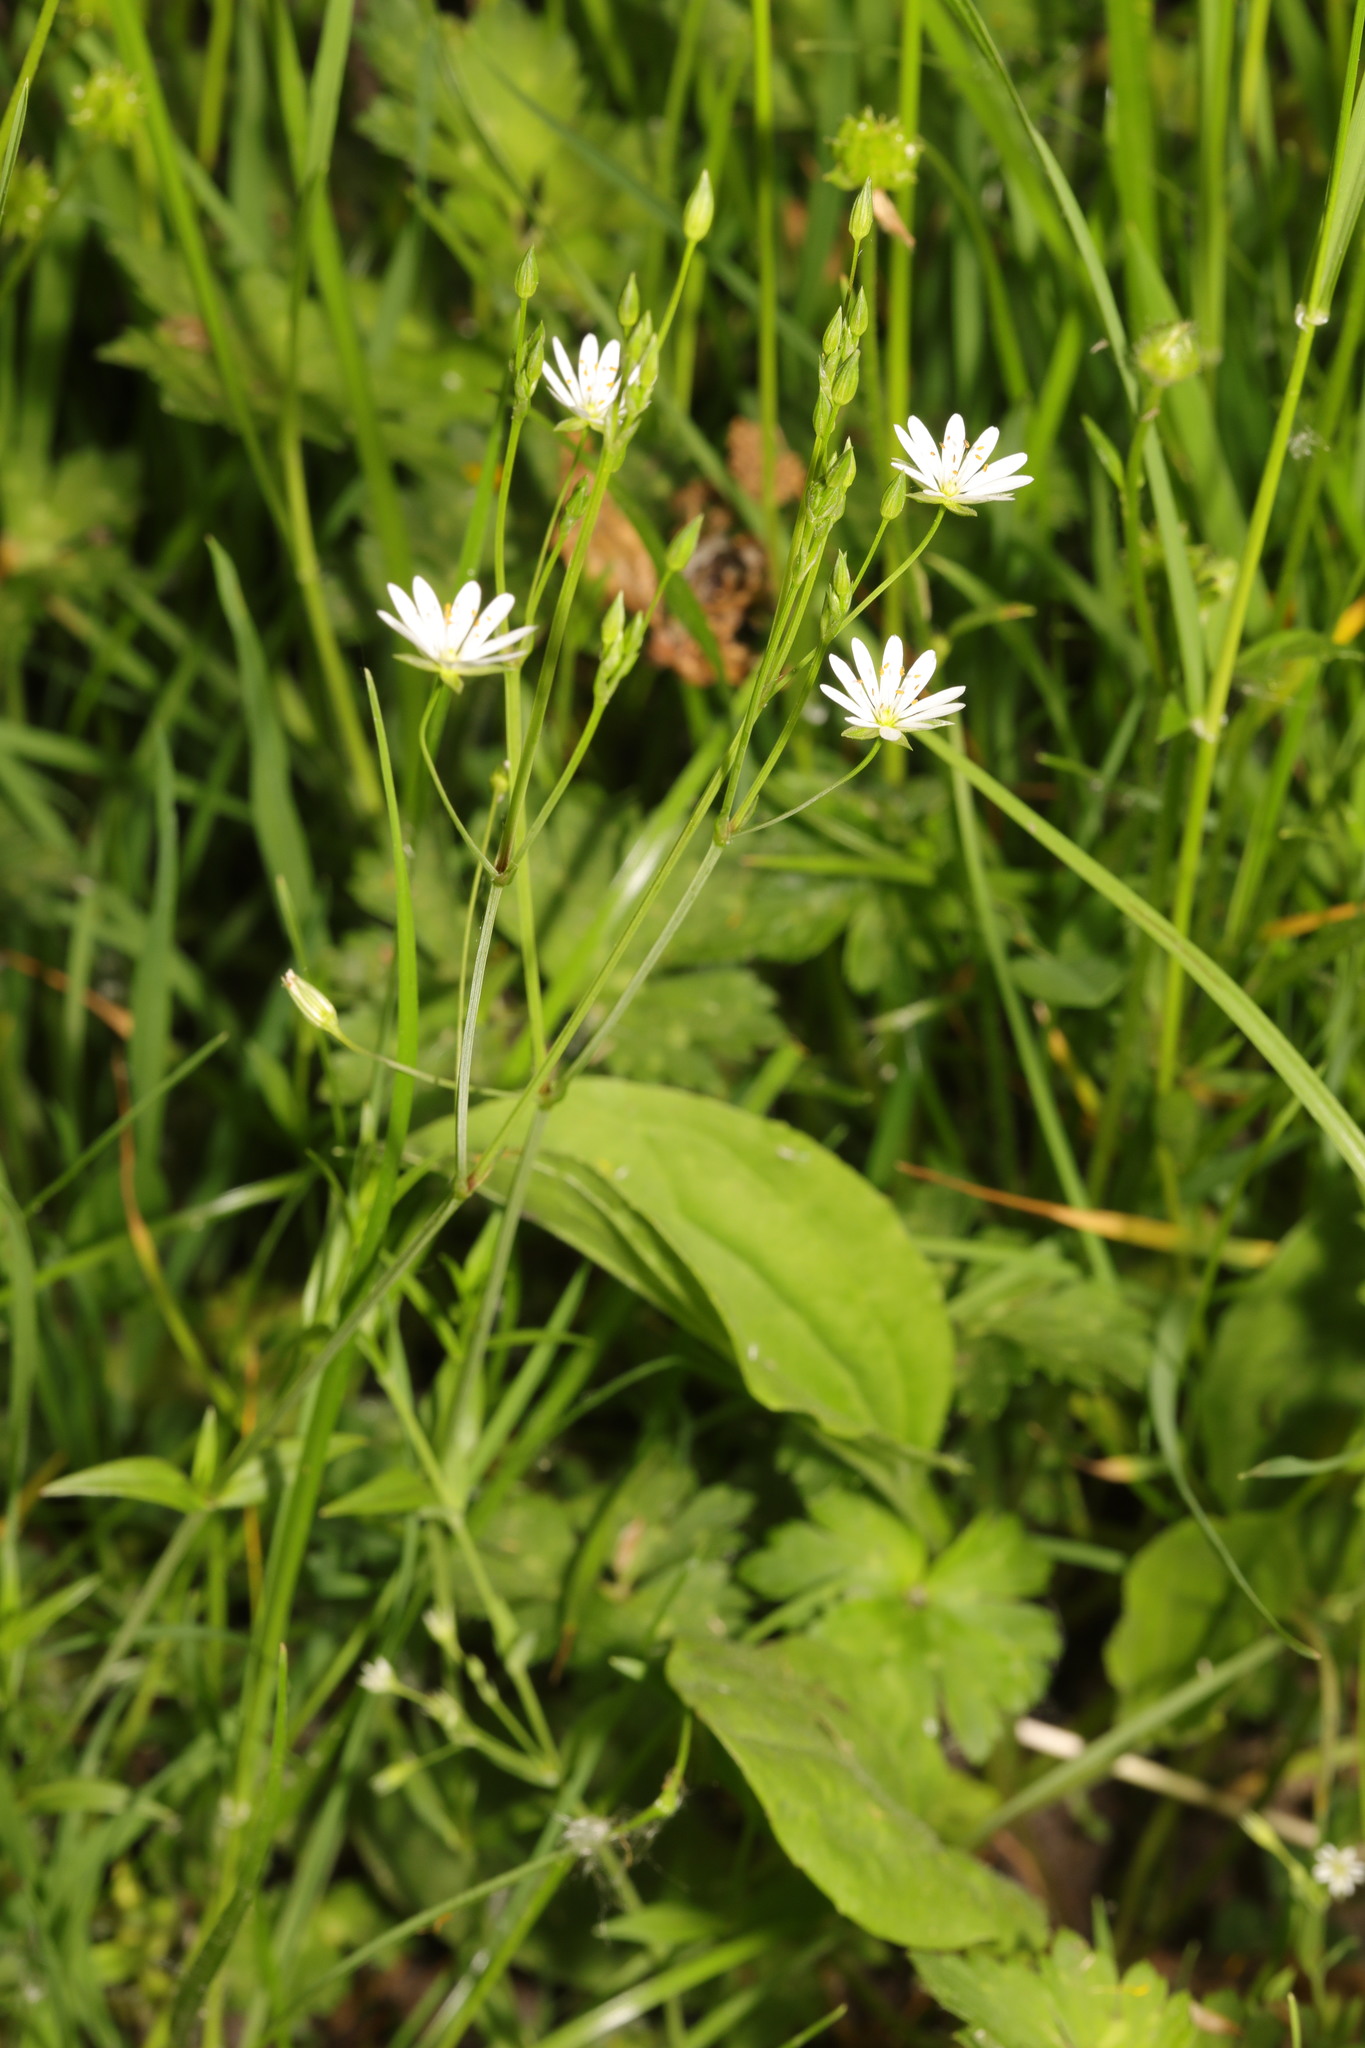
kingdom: Plantae
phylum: Tracheophyta
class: Magnoliopsida
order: Caryophyllales
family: Caryophyllaceae
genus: Stellaria
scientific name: Stellaria graminea
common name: Grass-like starwort
